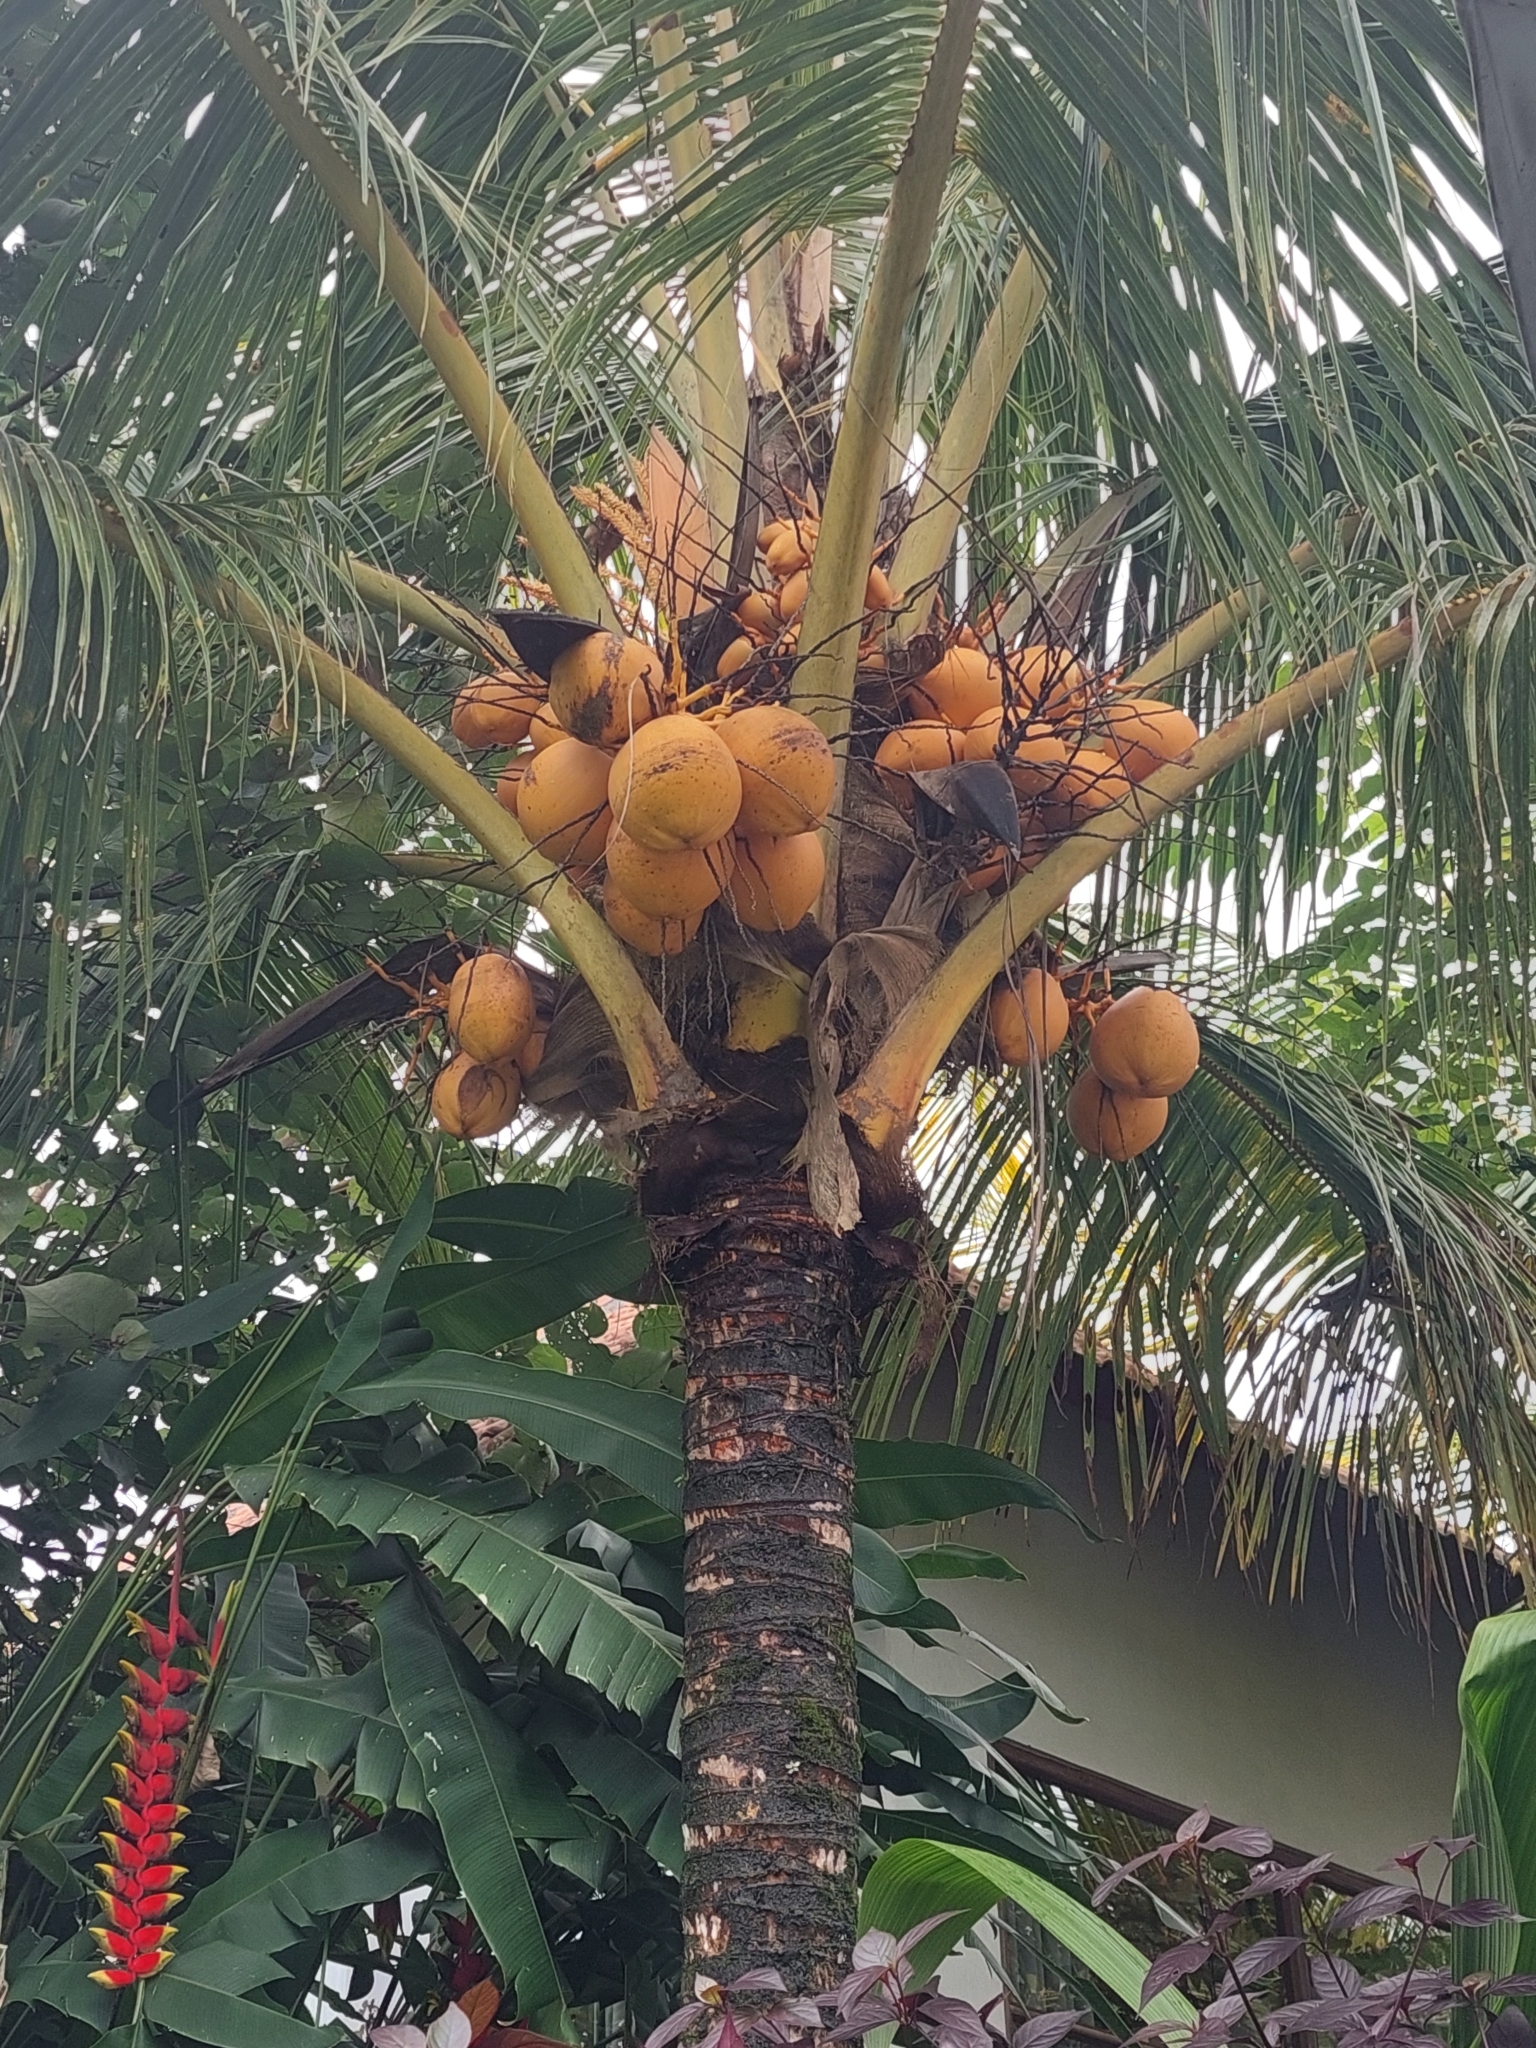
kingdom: Plantae
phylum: Tracheophyta
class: Liliopsida
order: Arecales
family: Arecaceae
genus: Cocos
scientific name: Cocos nucifera
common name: Coconut palm
